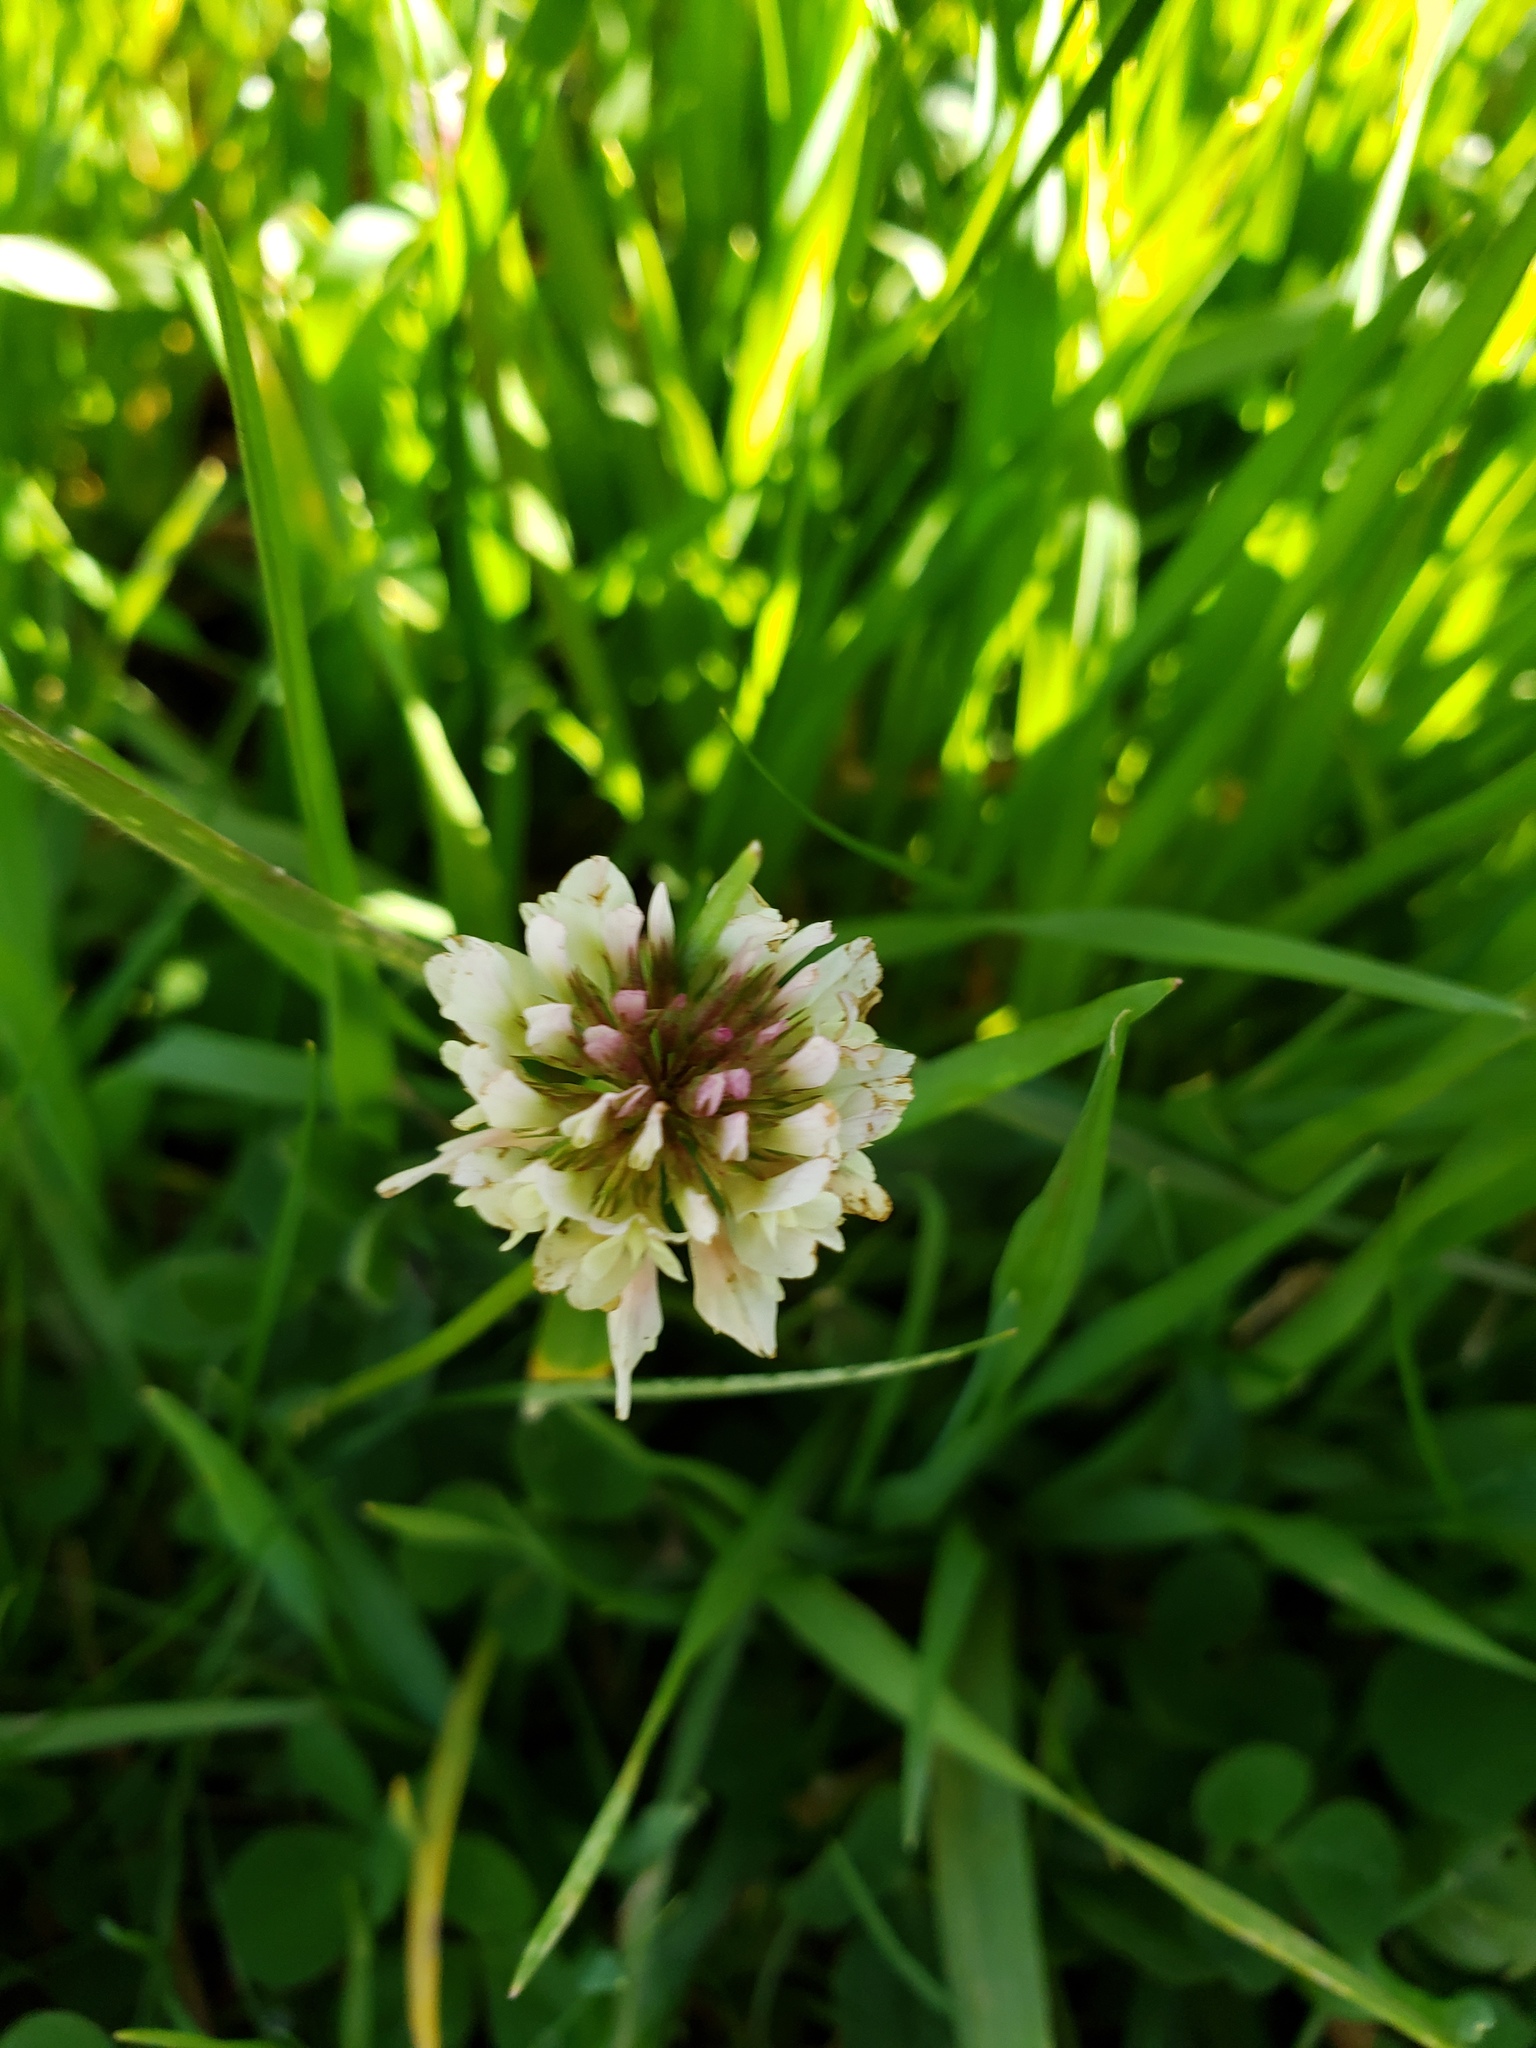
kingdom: Plantae
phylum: Tracheophyta
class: Magnoliopsida
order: Fabales
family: Fabaceae
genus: Trifolium
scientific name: Trifolium repens
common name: White clover
